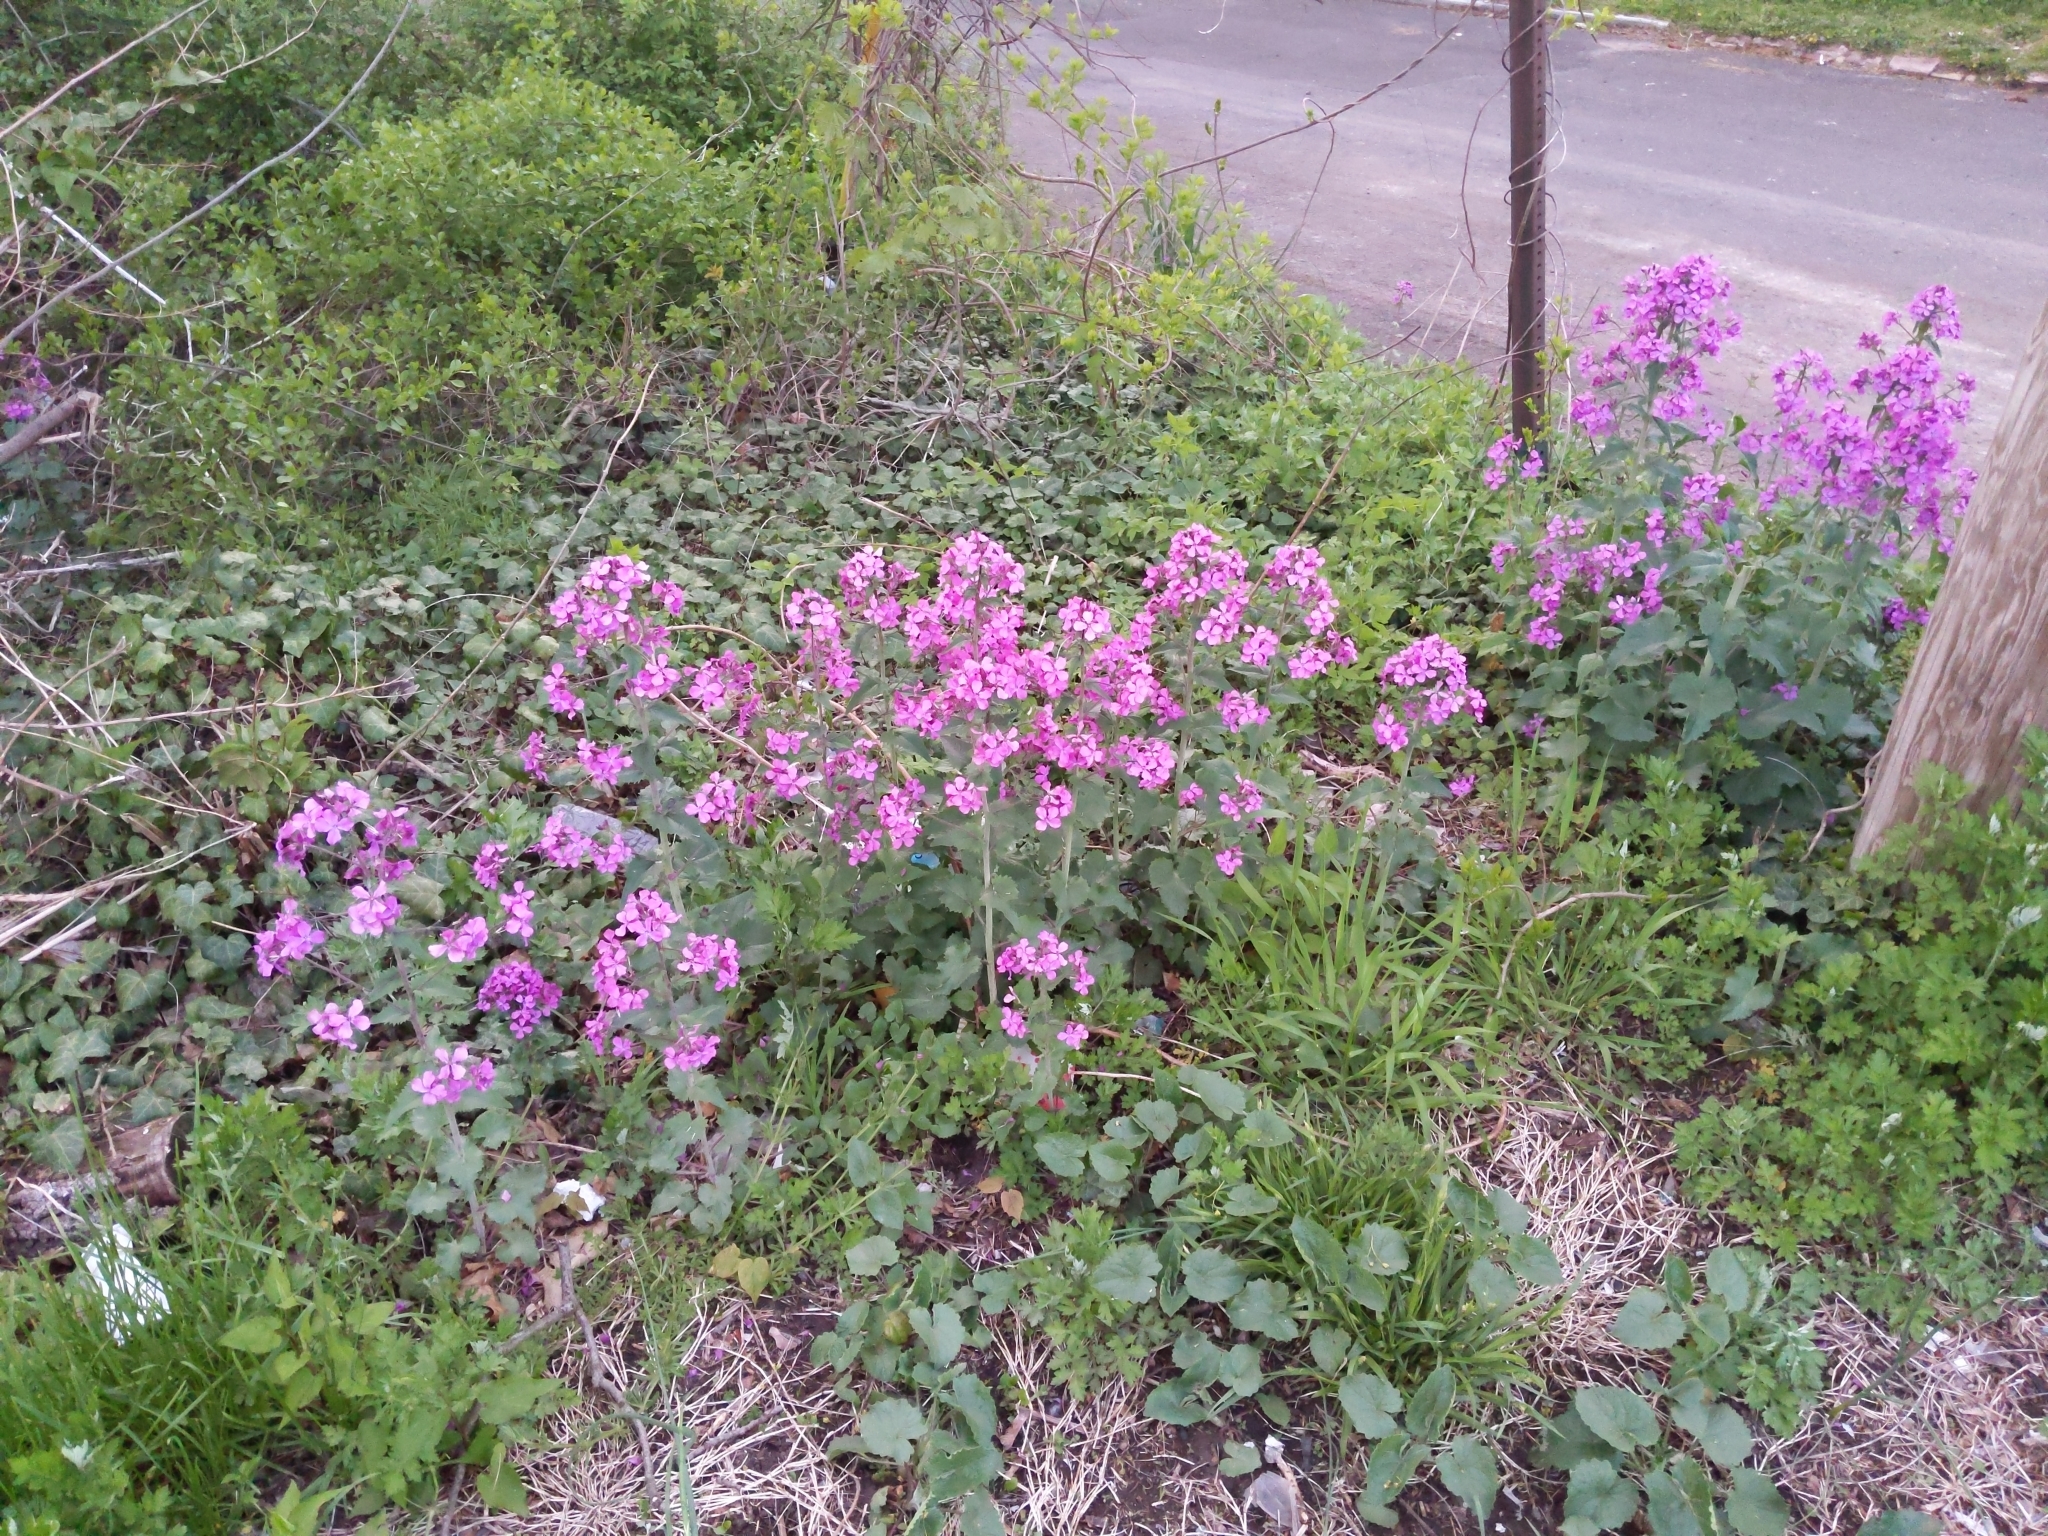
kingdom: Plantae
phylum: Tracheophyta
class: Magnoliopsida
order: Brassicales
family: Brassicaceae
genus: Lunaria
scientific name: Lunaria annua
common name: Honesty
